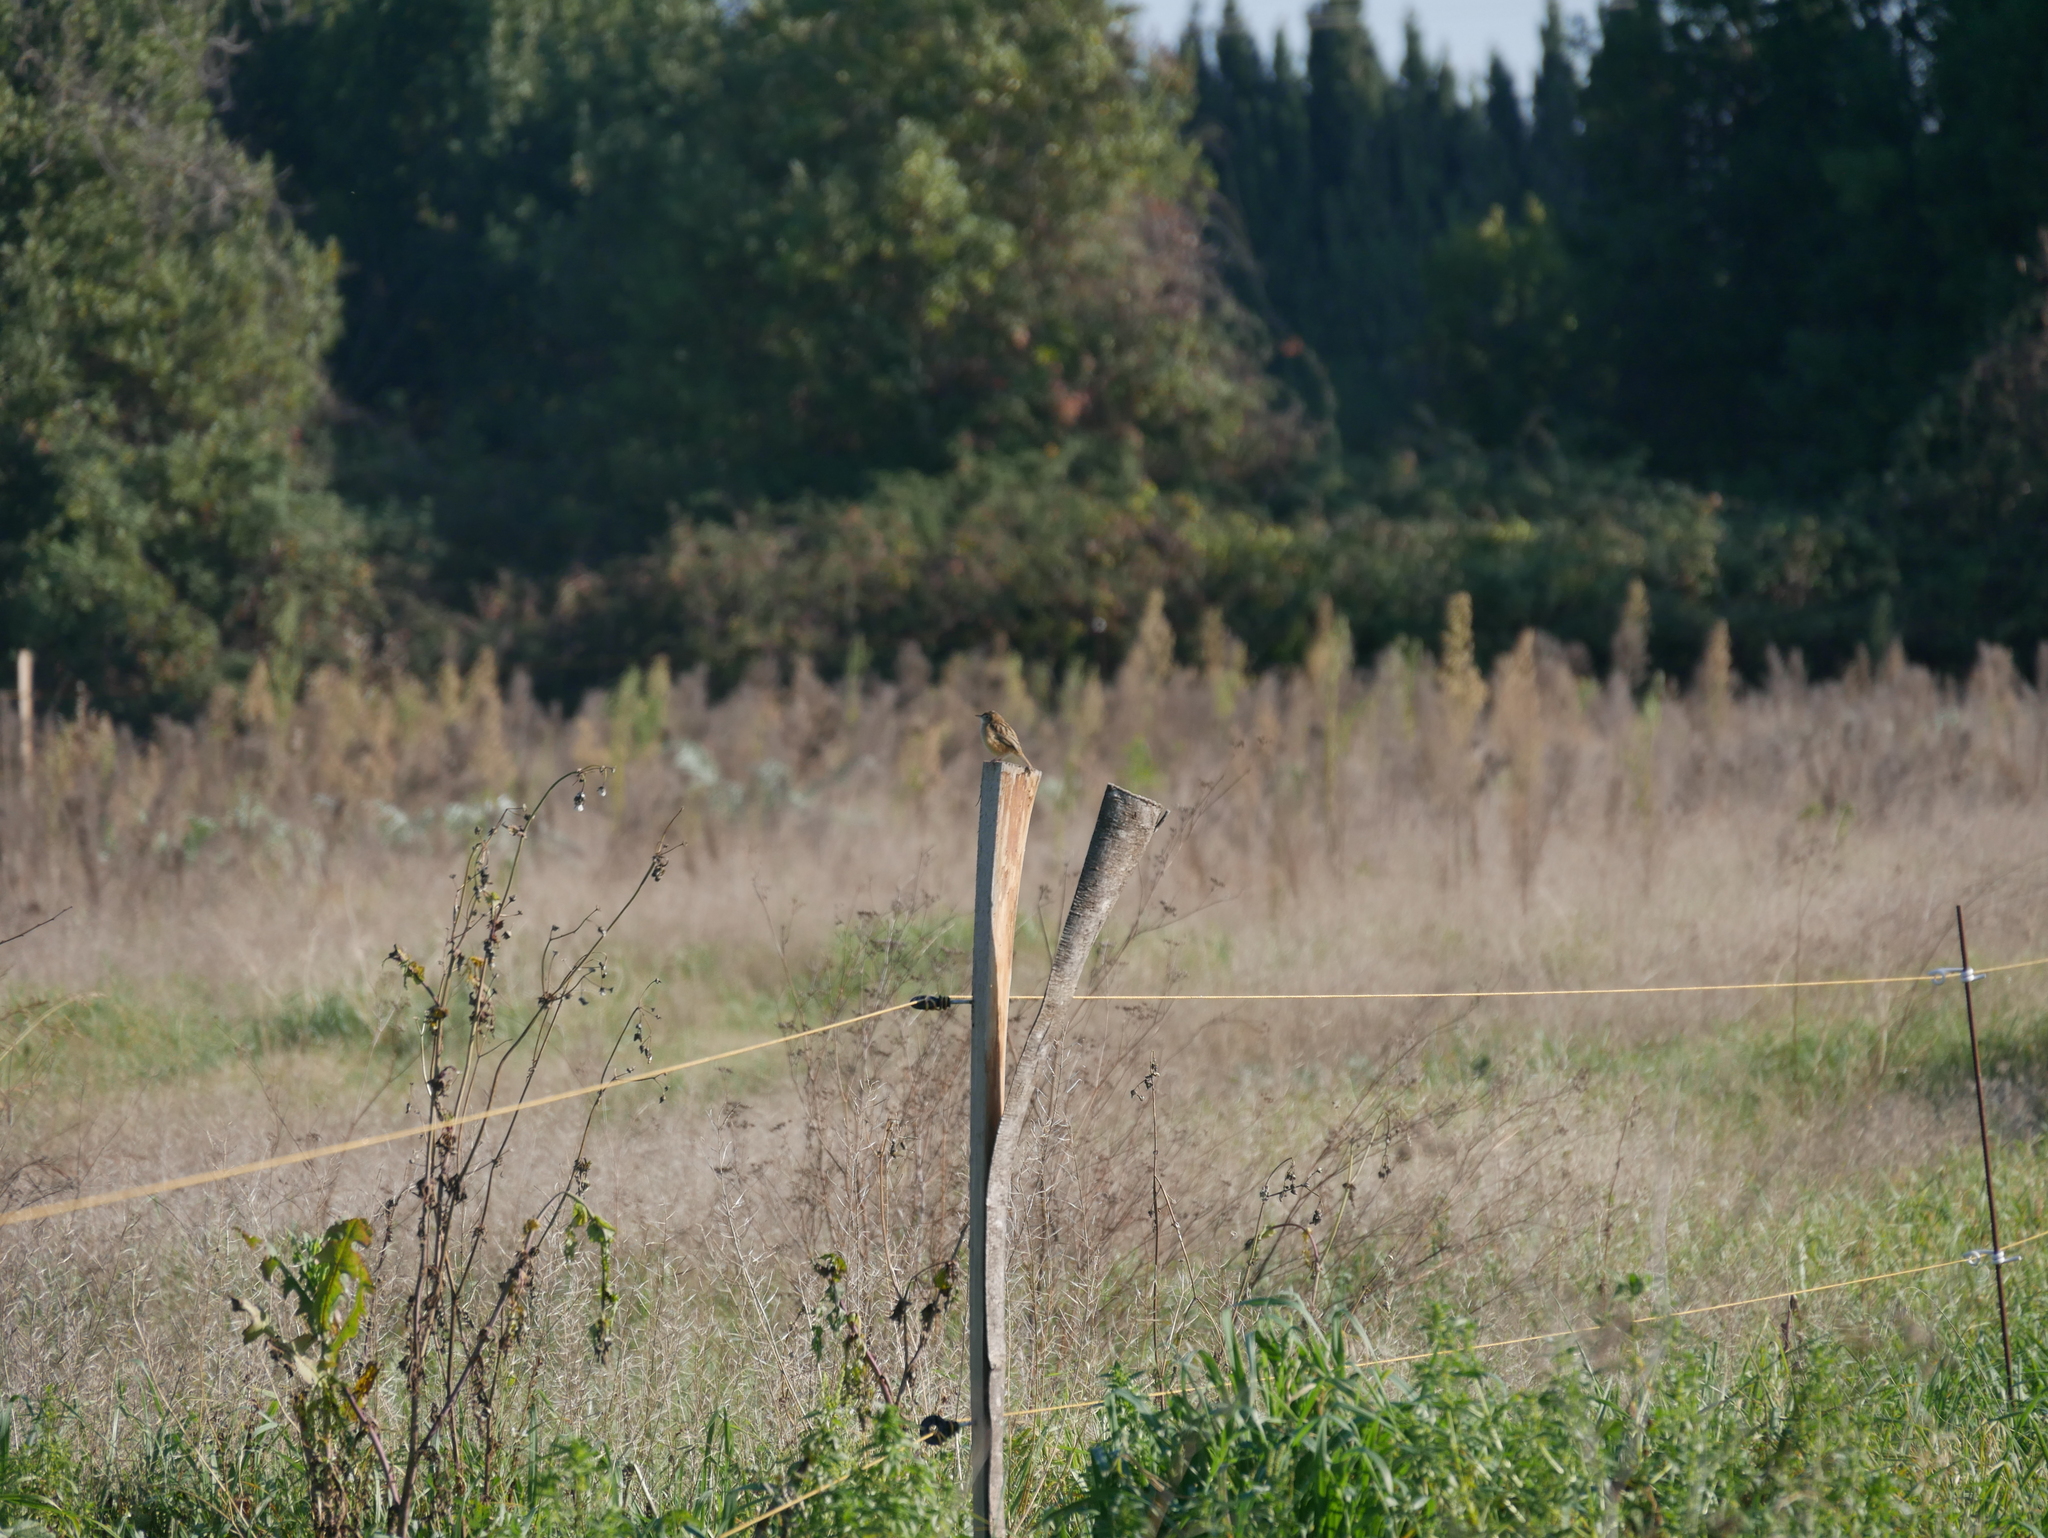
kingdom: Animalia
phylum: Chordata
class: Aves
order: Passeriformes
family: Cisticolidae
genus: Cisticola
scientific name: Cisticola juncidis
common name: Zitting cisticola
